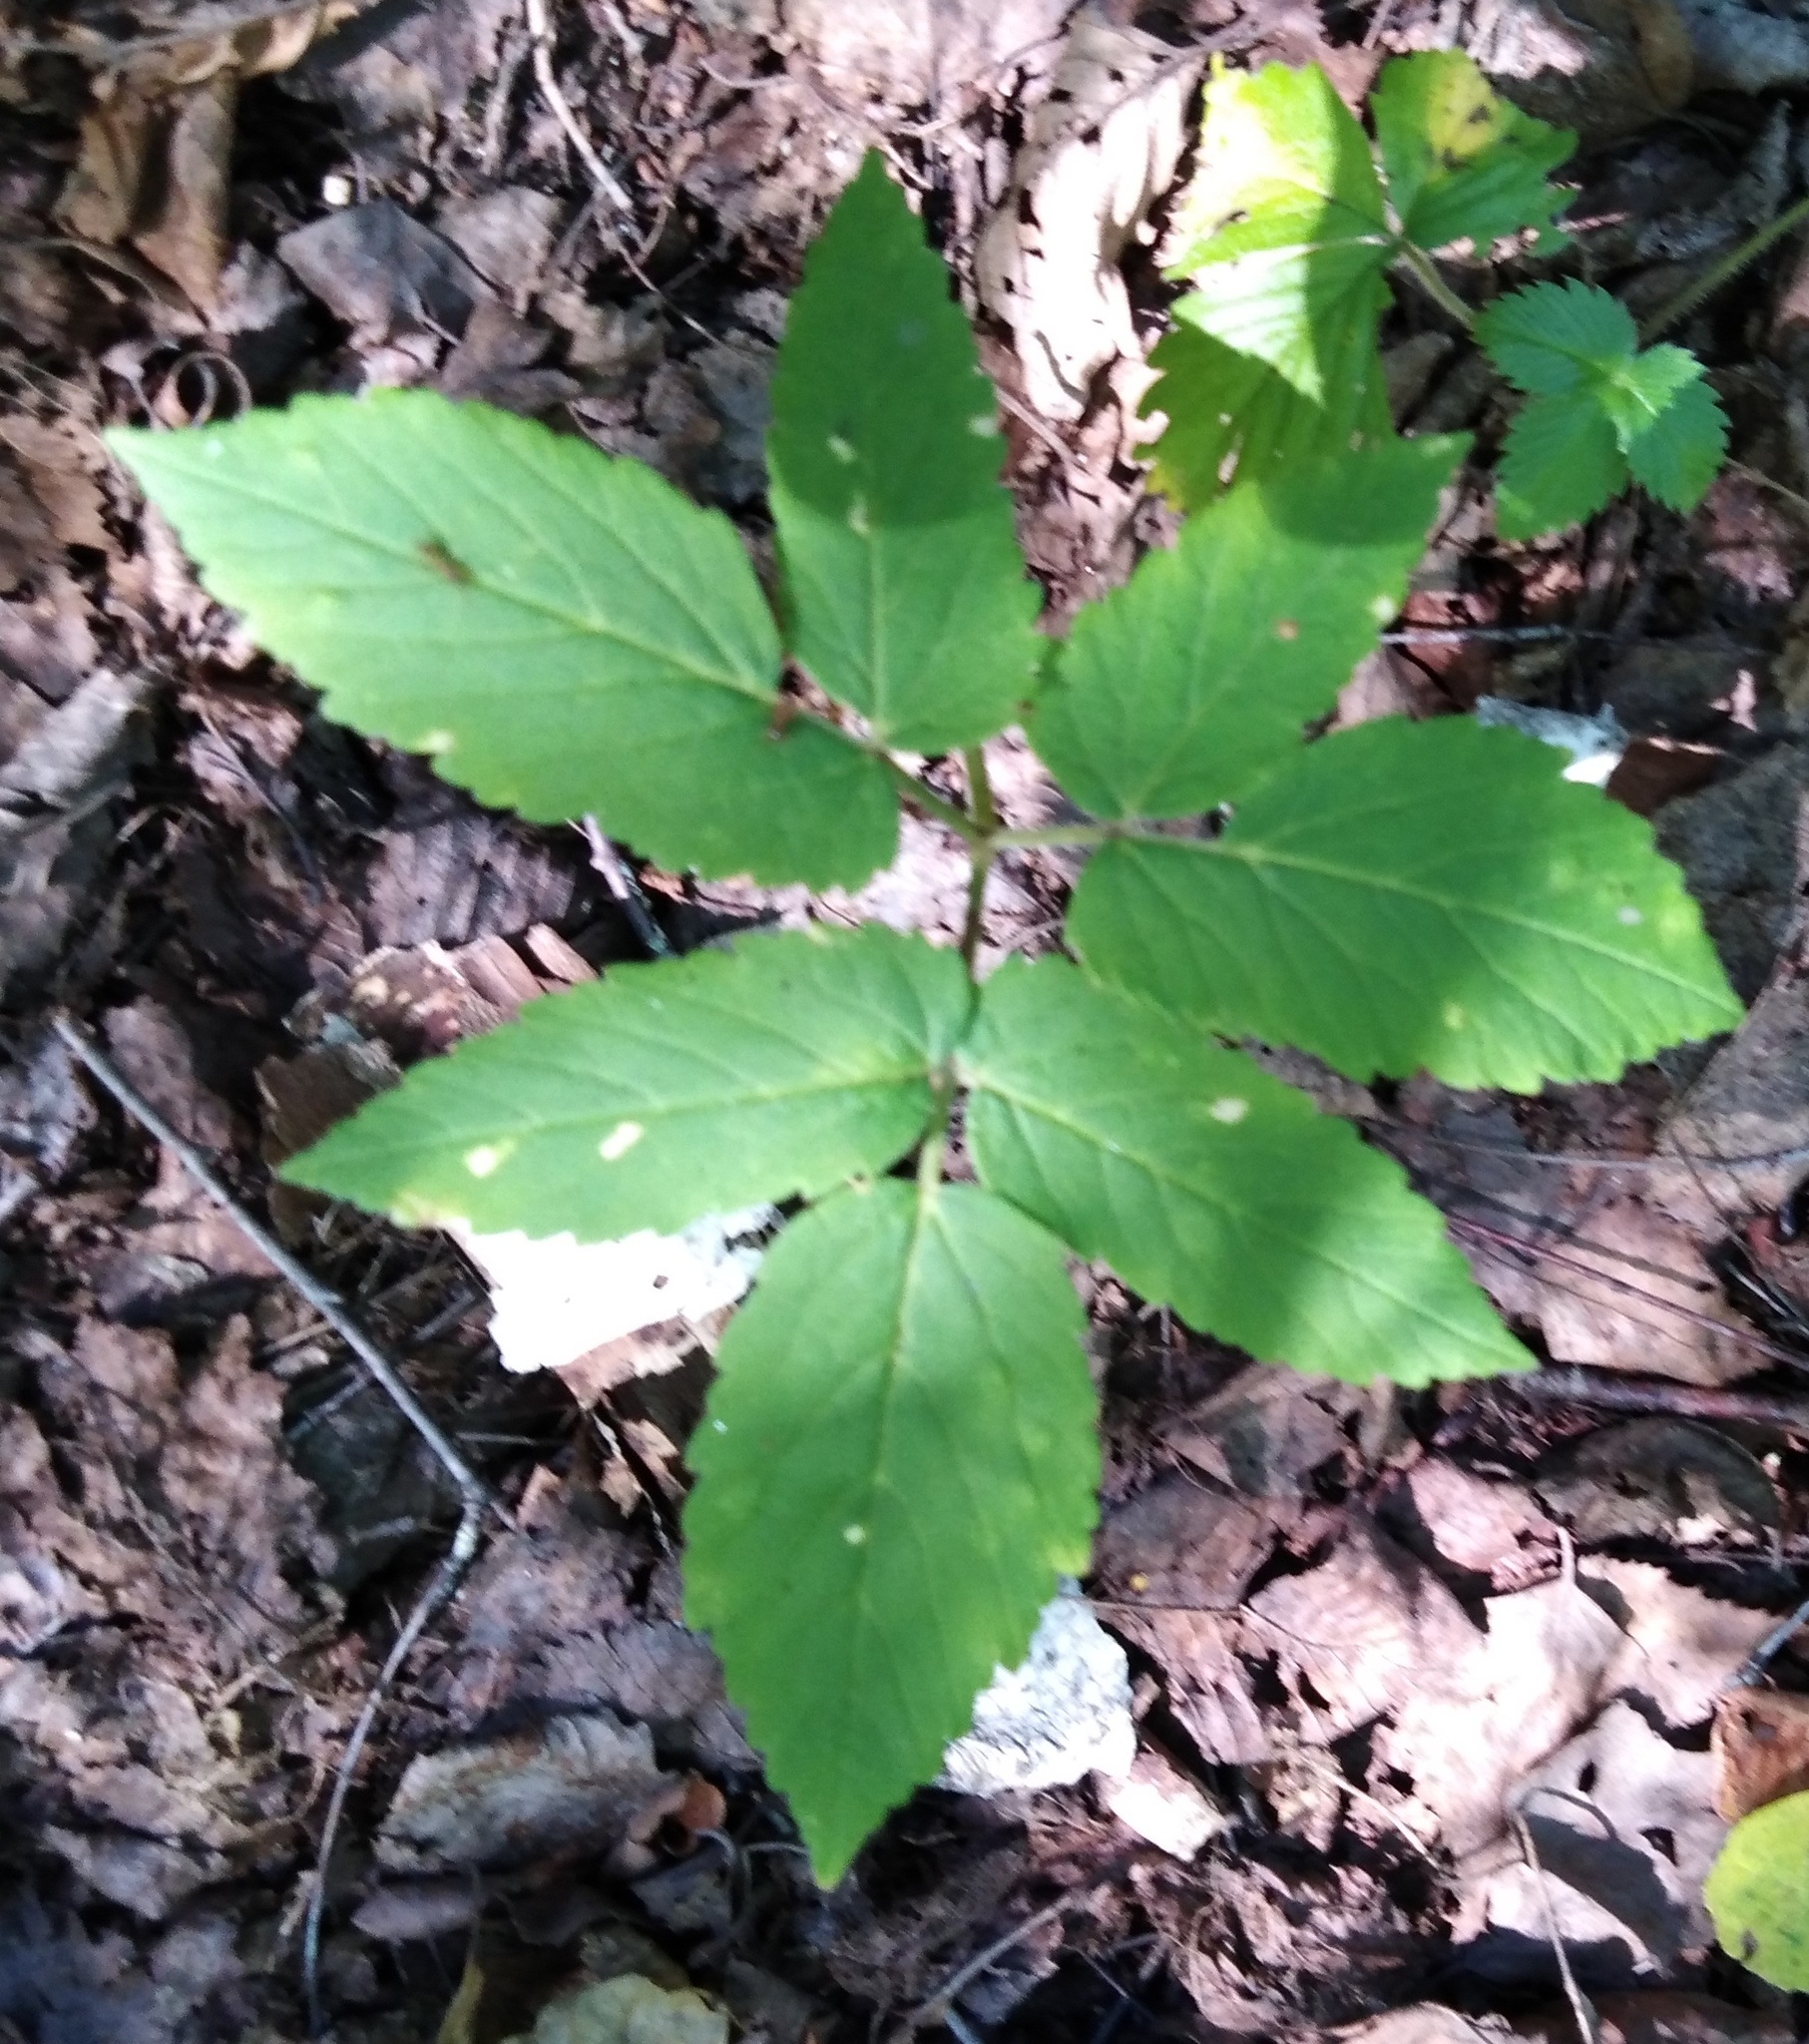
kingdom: Plantae
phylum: Tracheophyta
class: Magnoliopsida
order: Apiales
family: Apiaceae
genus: Aegopodium
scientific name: Aegopodium podagraria
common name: Ground-elder
